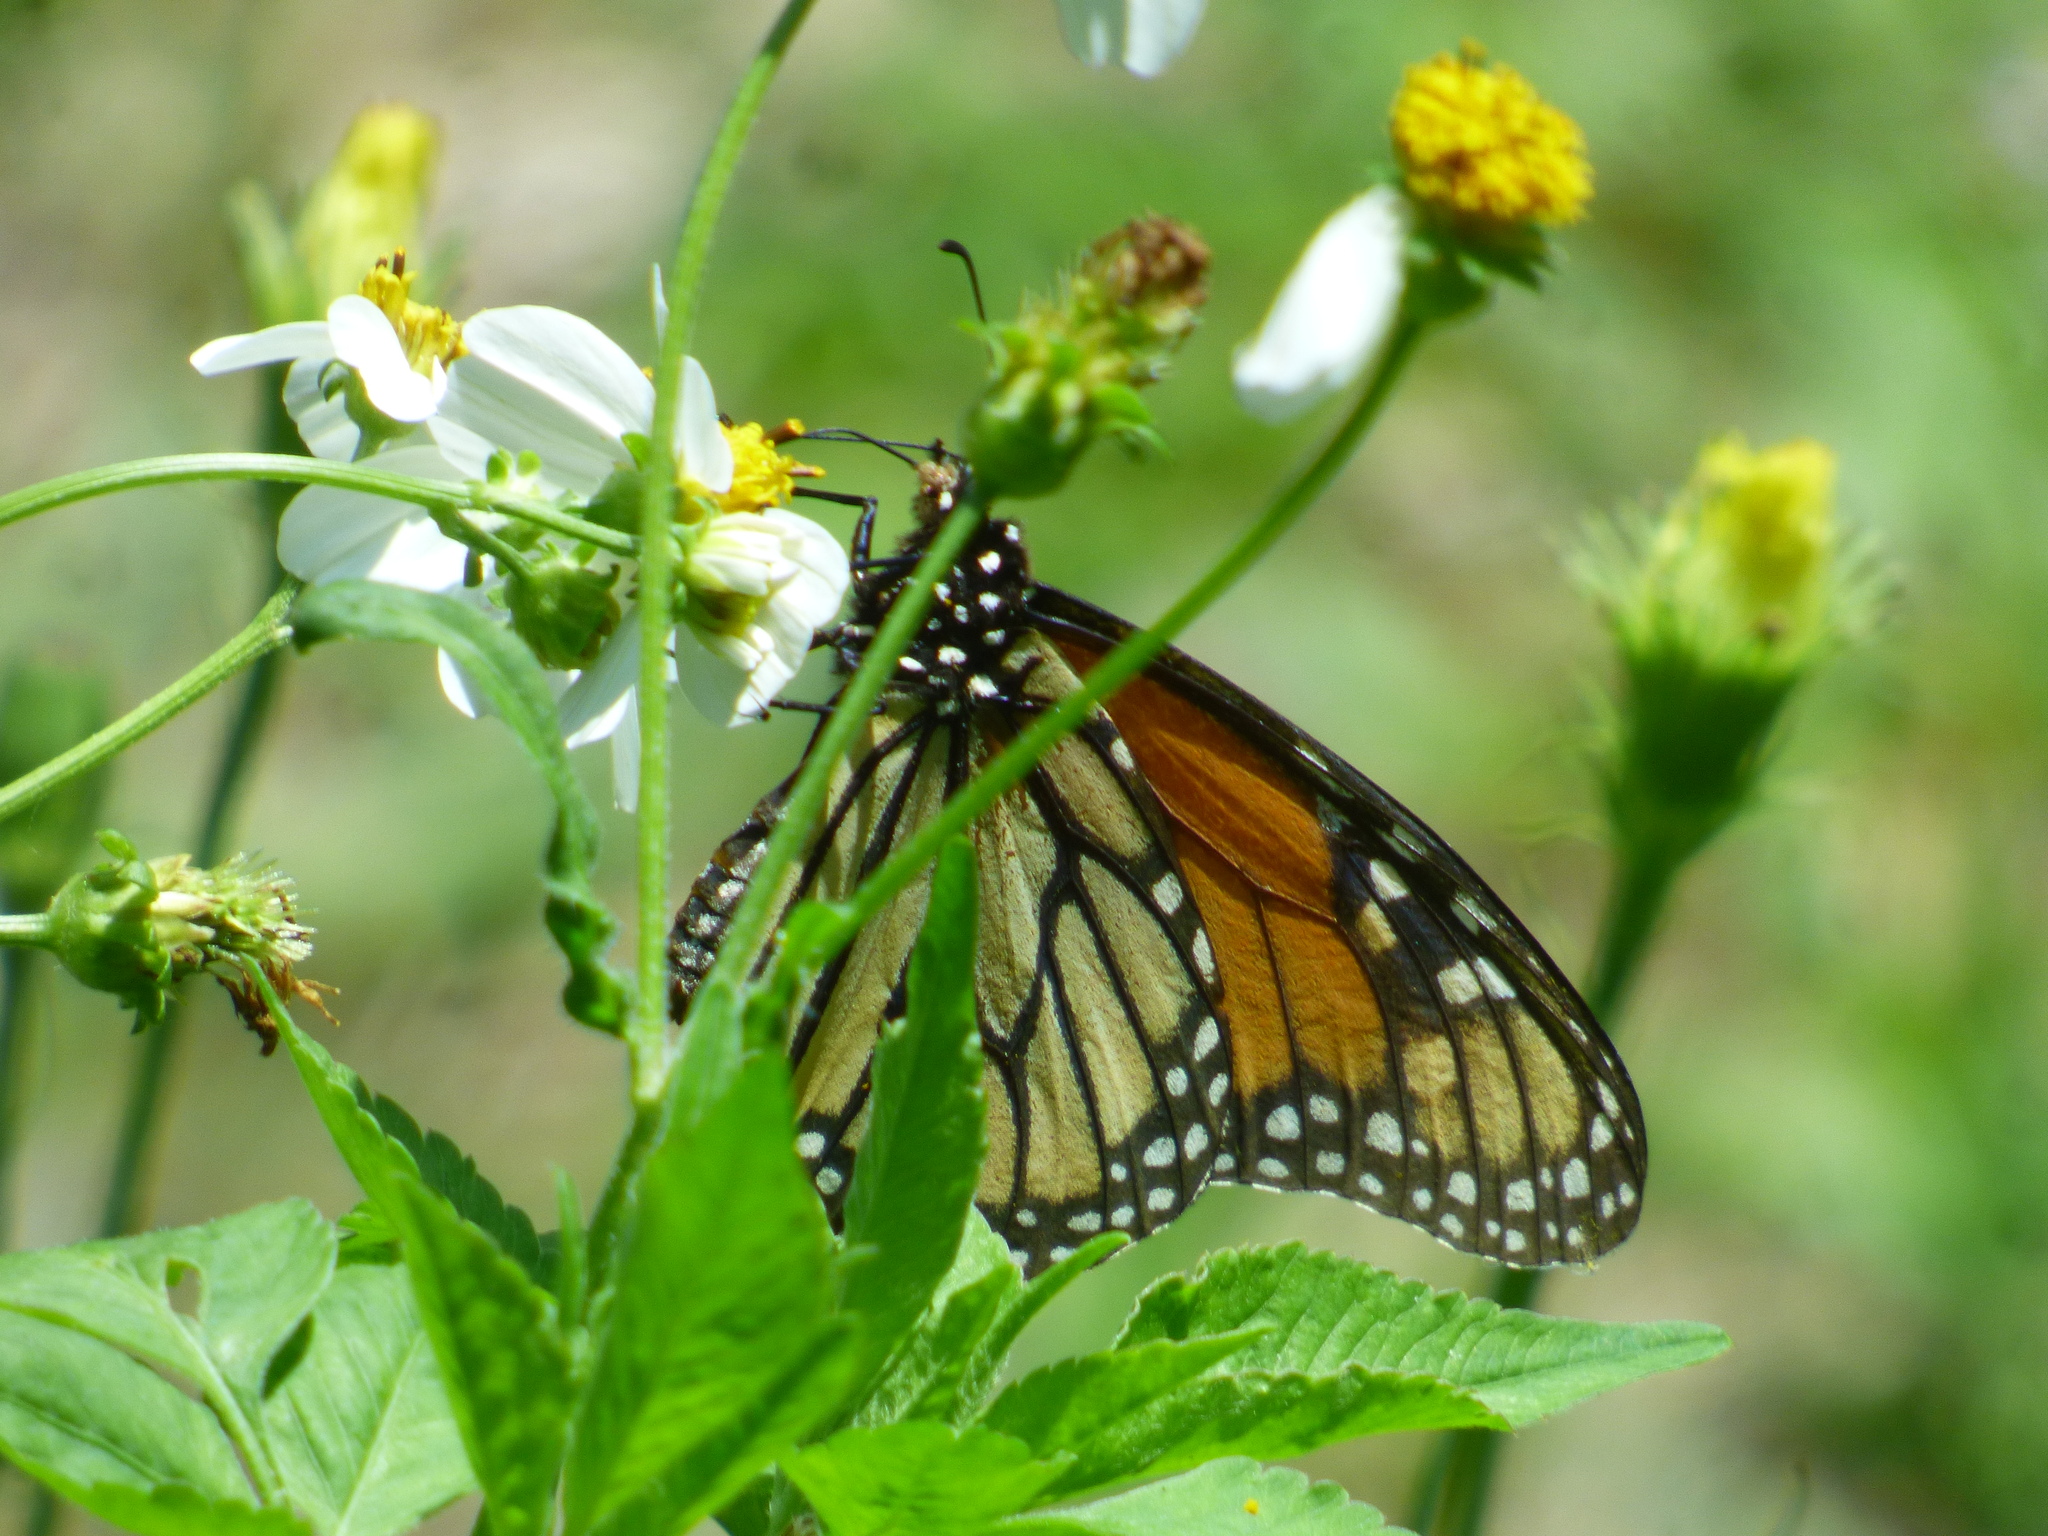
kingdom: Animalia
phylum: Arthropoda
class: Insecta
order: Lepidoptera
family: Nymphalidae
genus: Danaus
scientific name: Danaus plexippus
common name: Monarch
